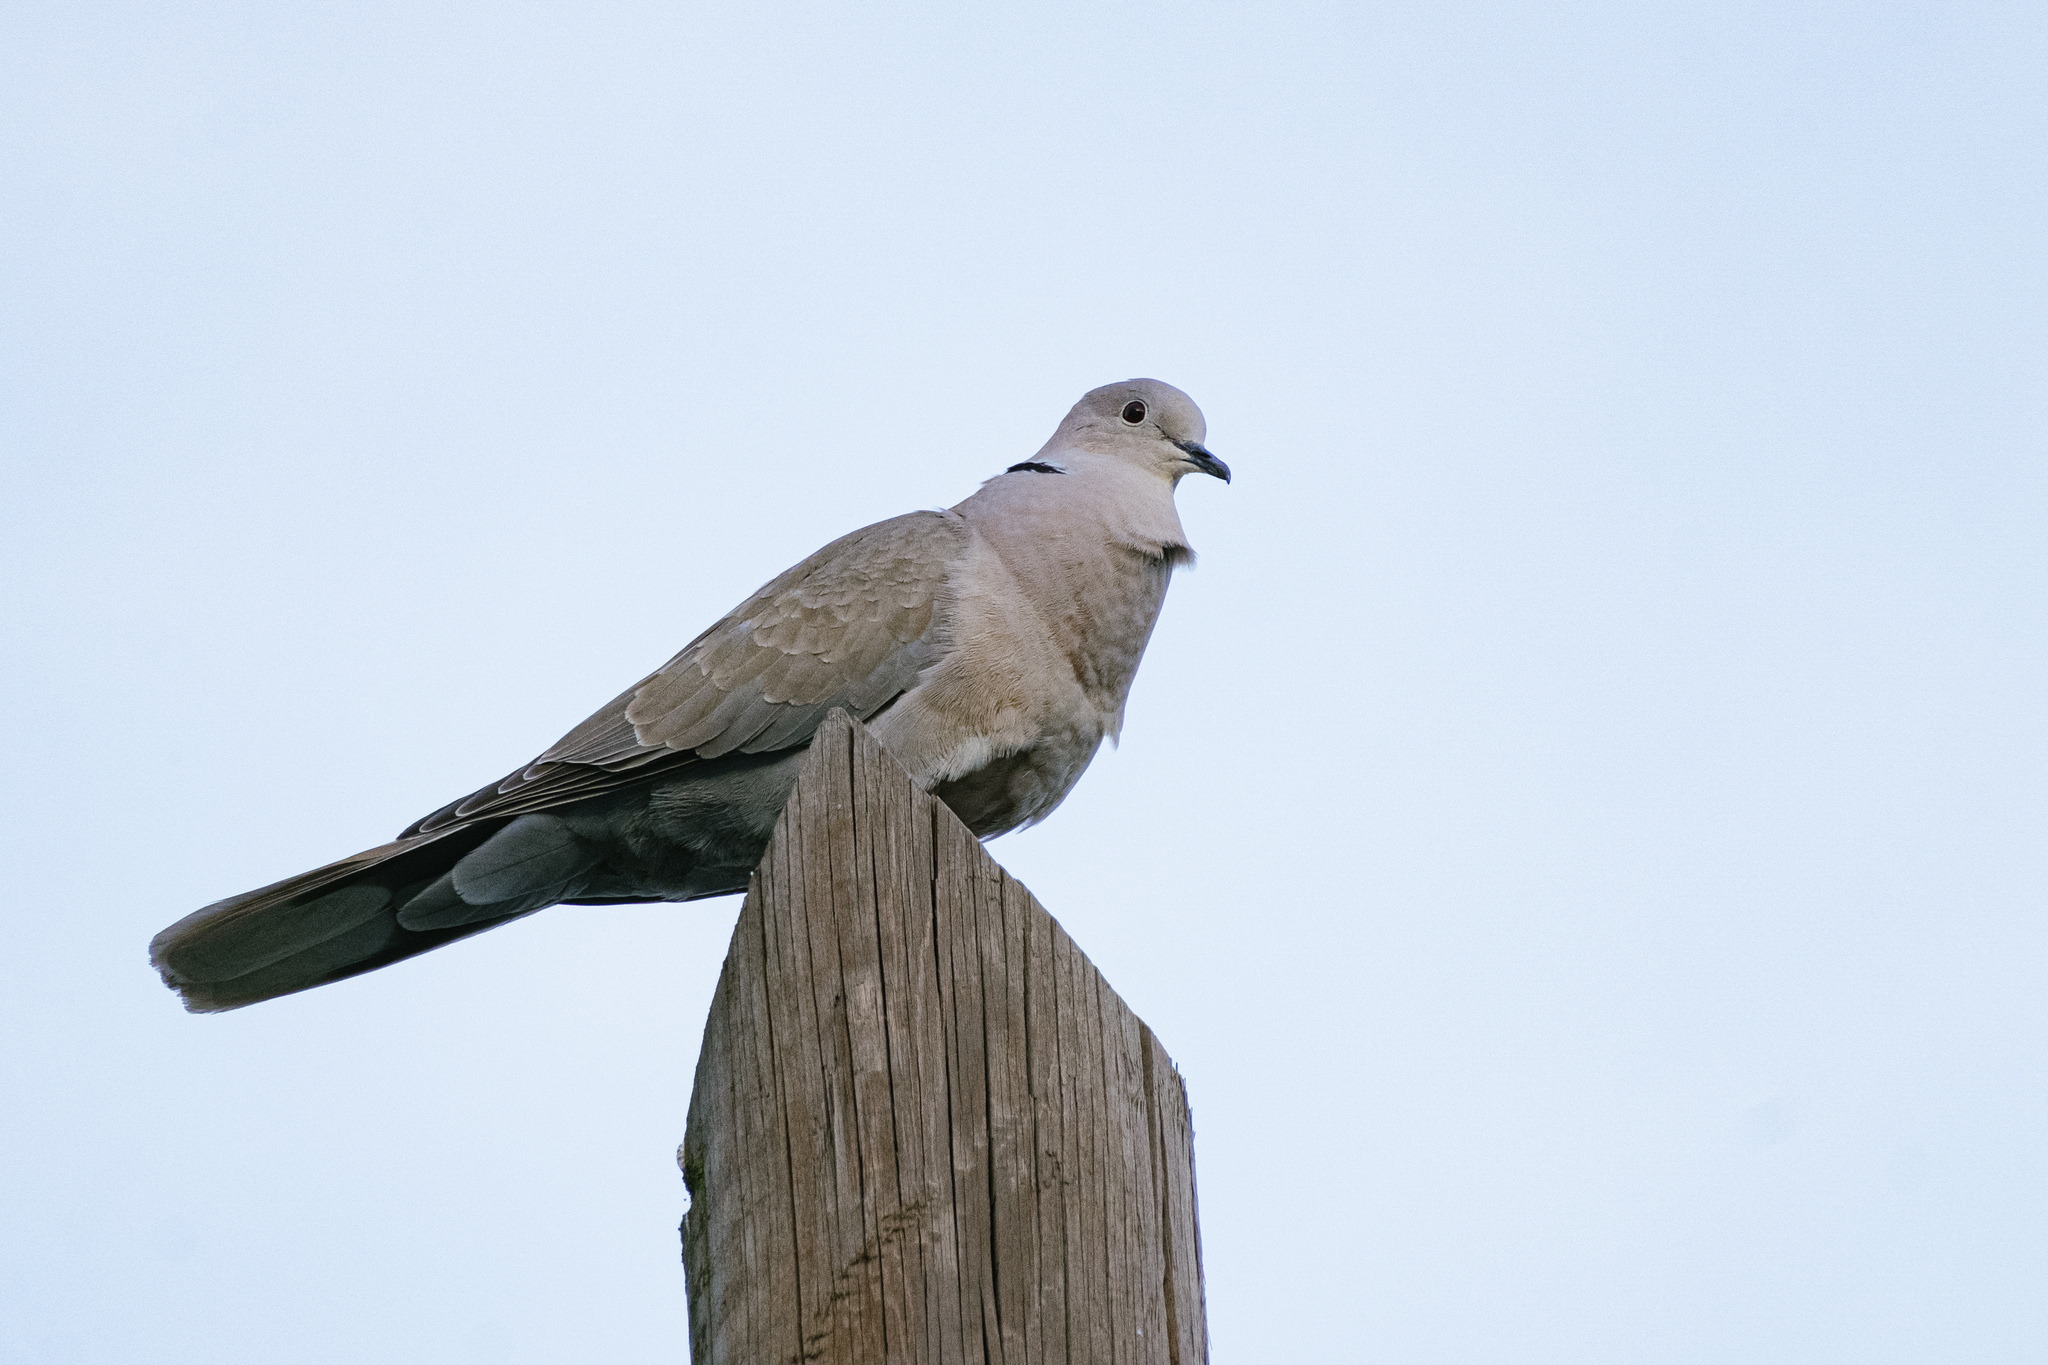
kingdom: Animalia
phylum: Chordata
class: Aves
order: Columbiformes
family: Columbidae
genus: Streptopelia
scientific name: Streptopelia decaocto
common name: Eurasian collared dove
